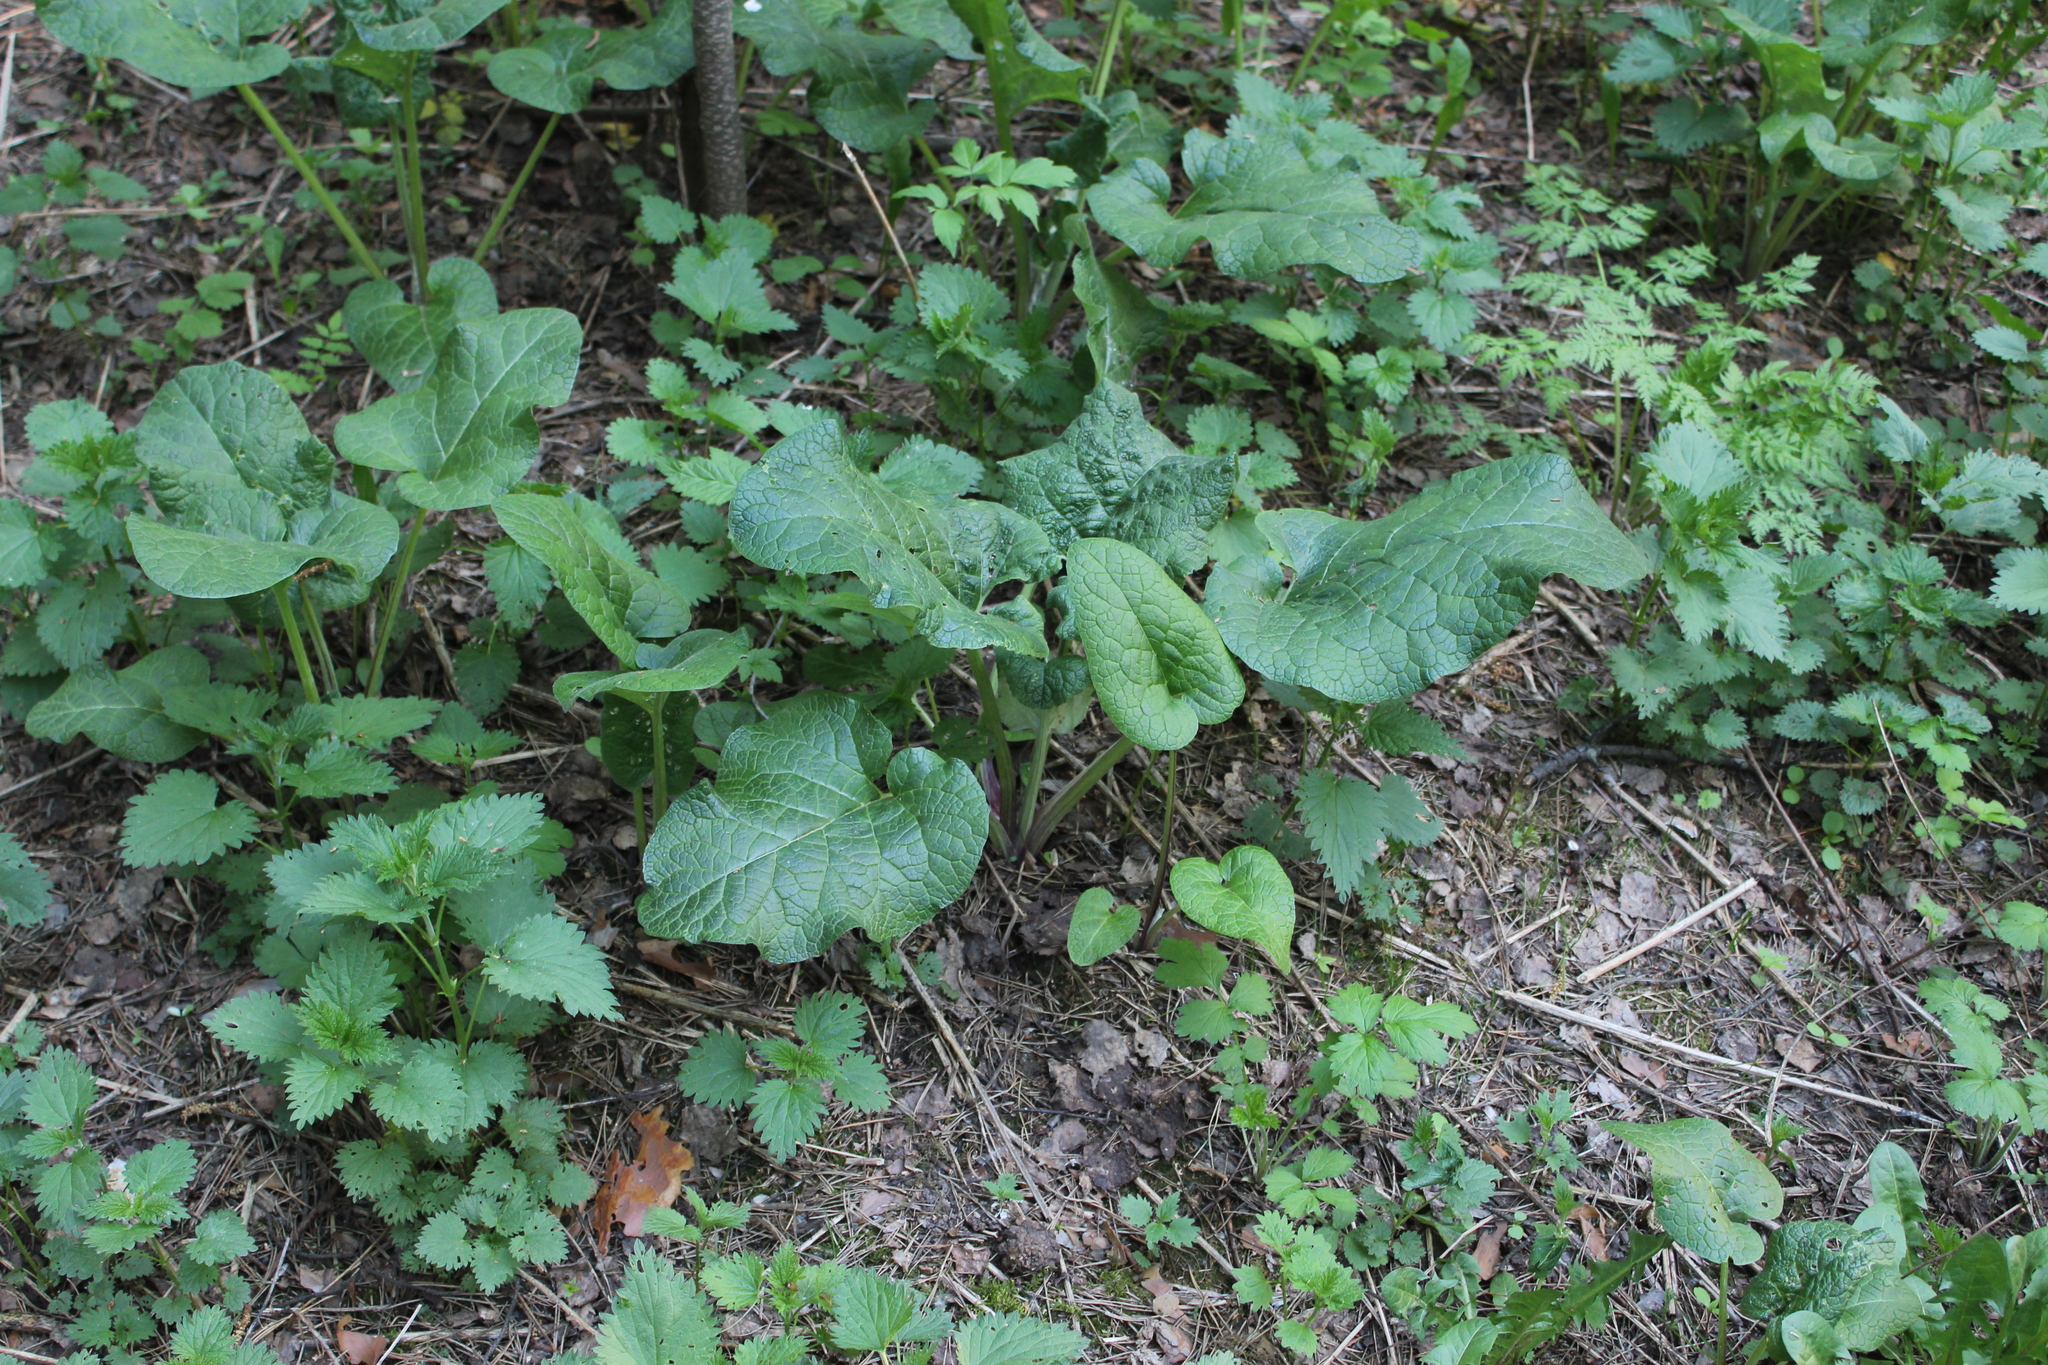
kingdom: Plantae
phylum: Tracheophyta
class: Magnoliopsida
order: Asterales
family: Asteraceae
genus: Arctium
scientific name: Arctium
